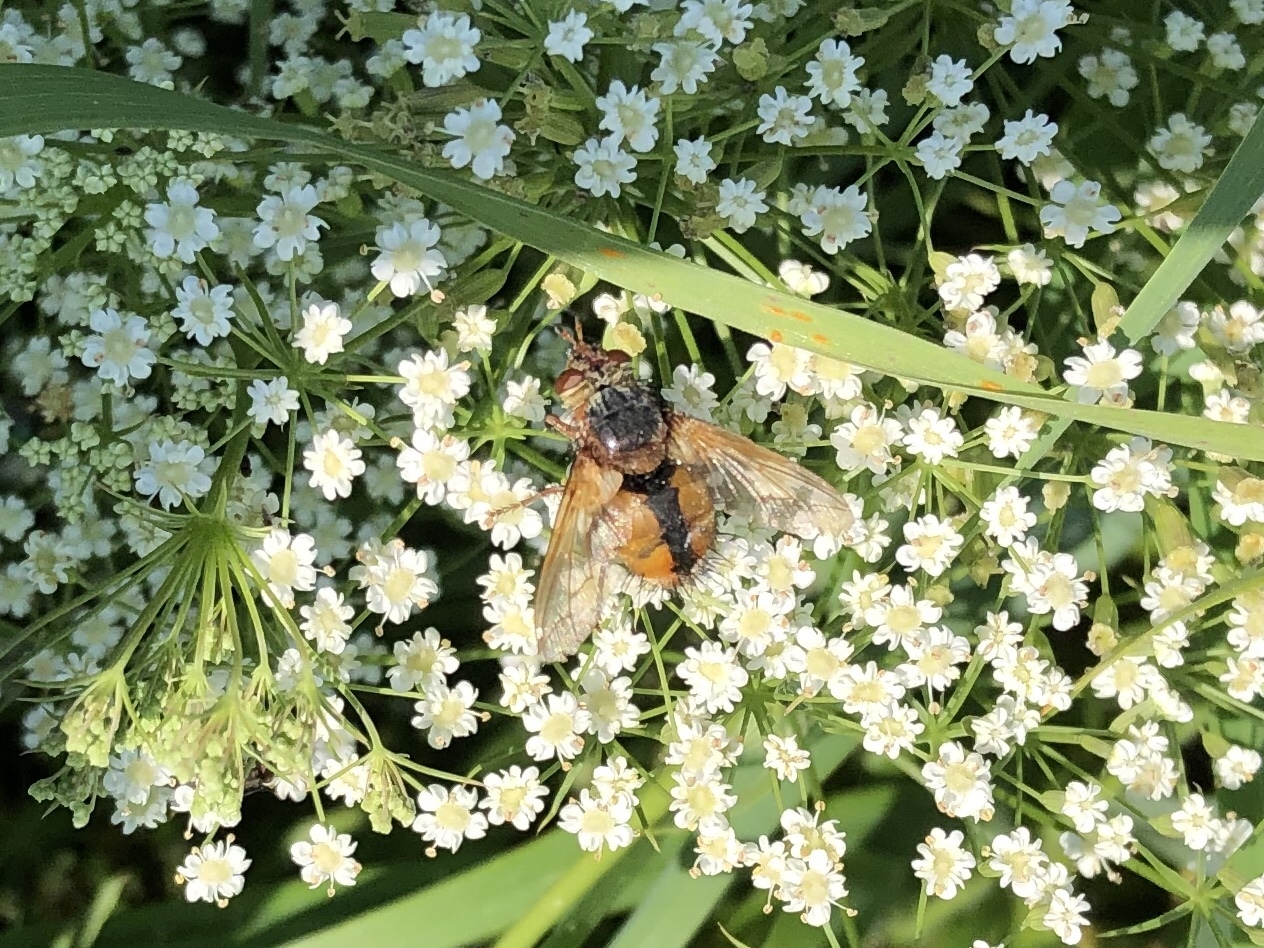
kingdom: Animalia
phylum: Arthropoda
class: Insecta
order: Diptera
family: Tachinidae
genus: Tachina
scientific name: Tachina fera
